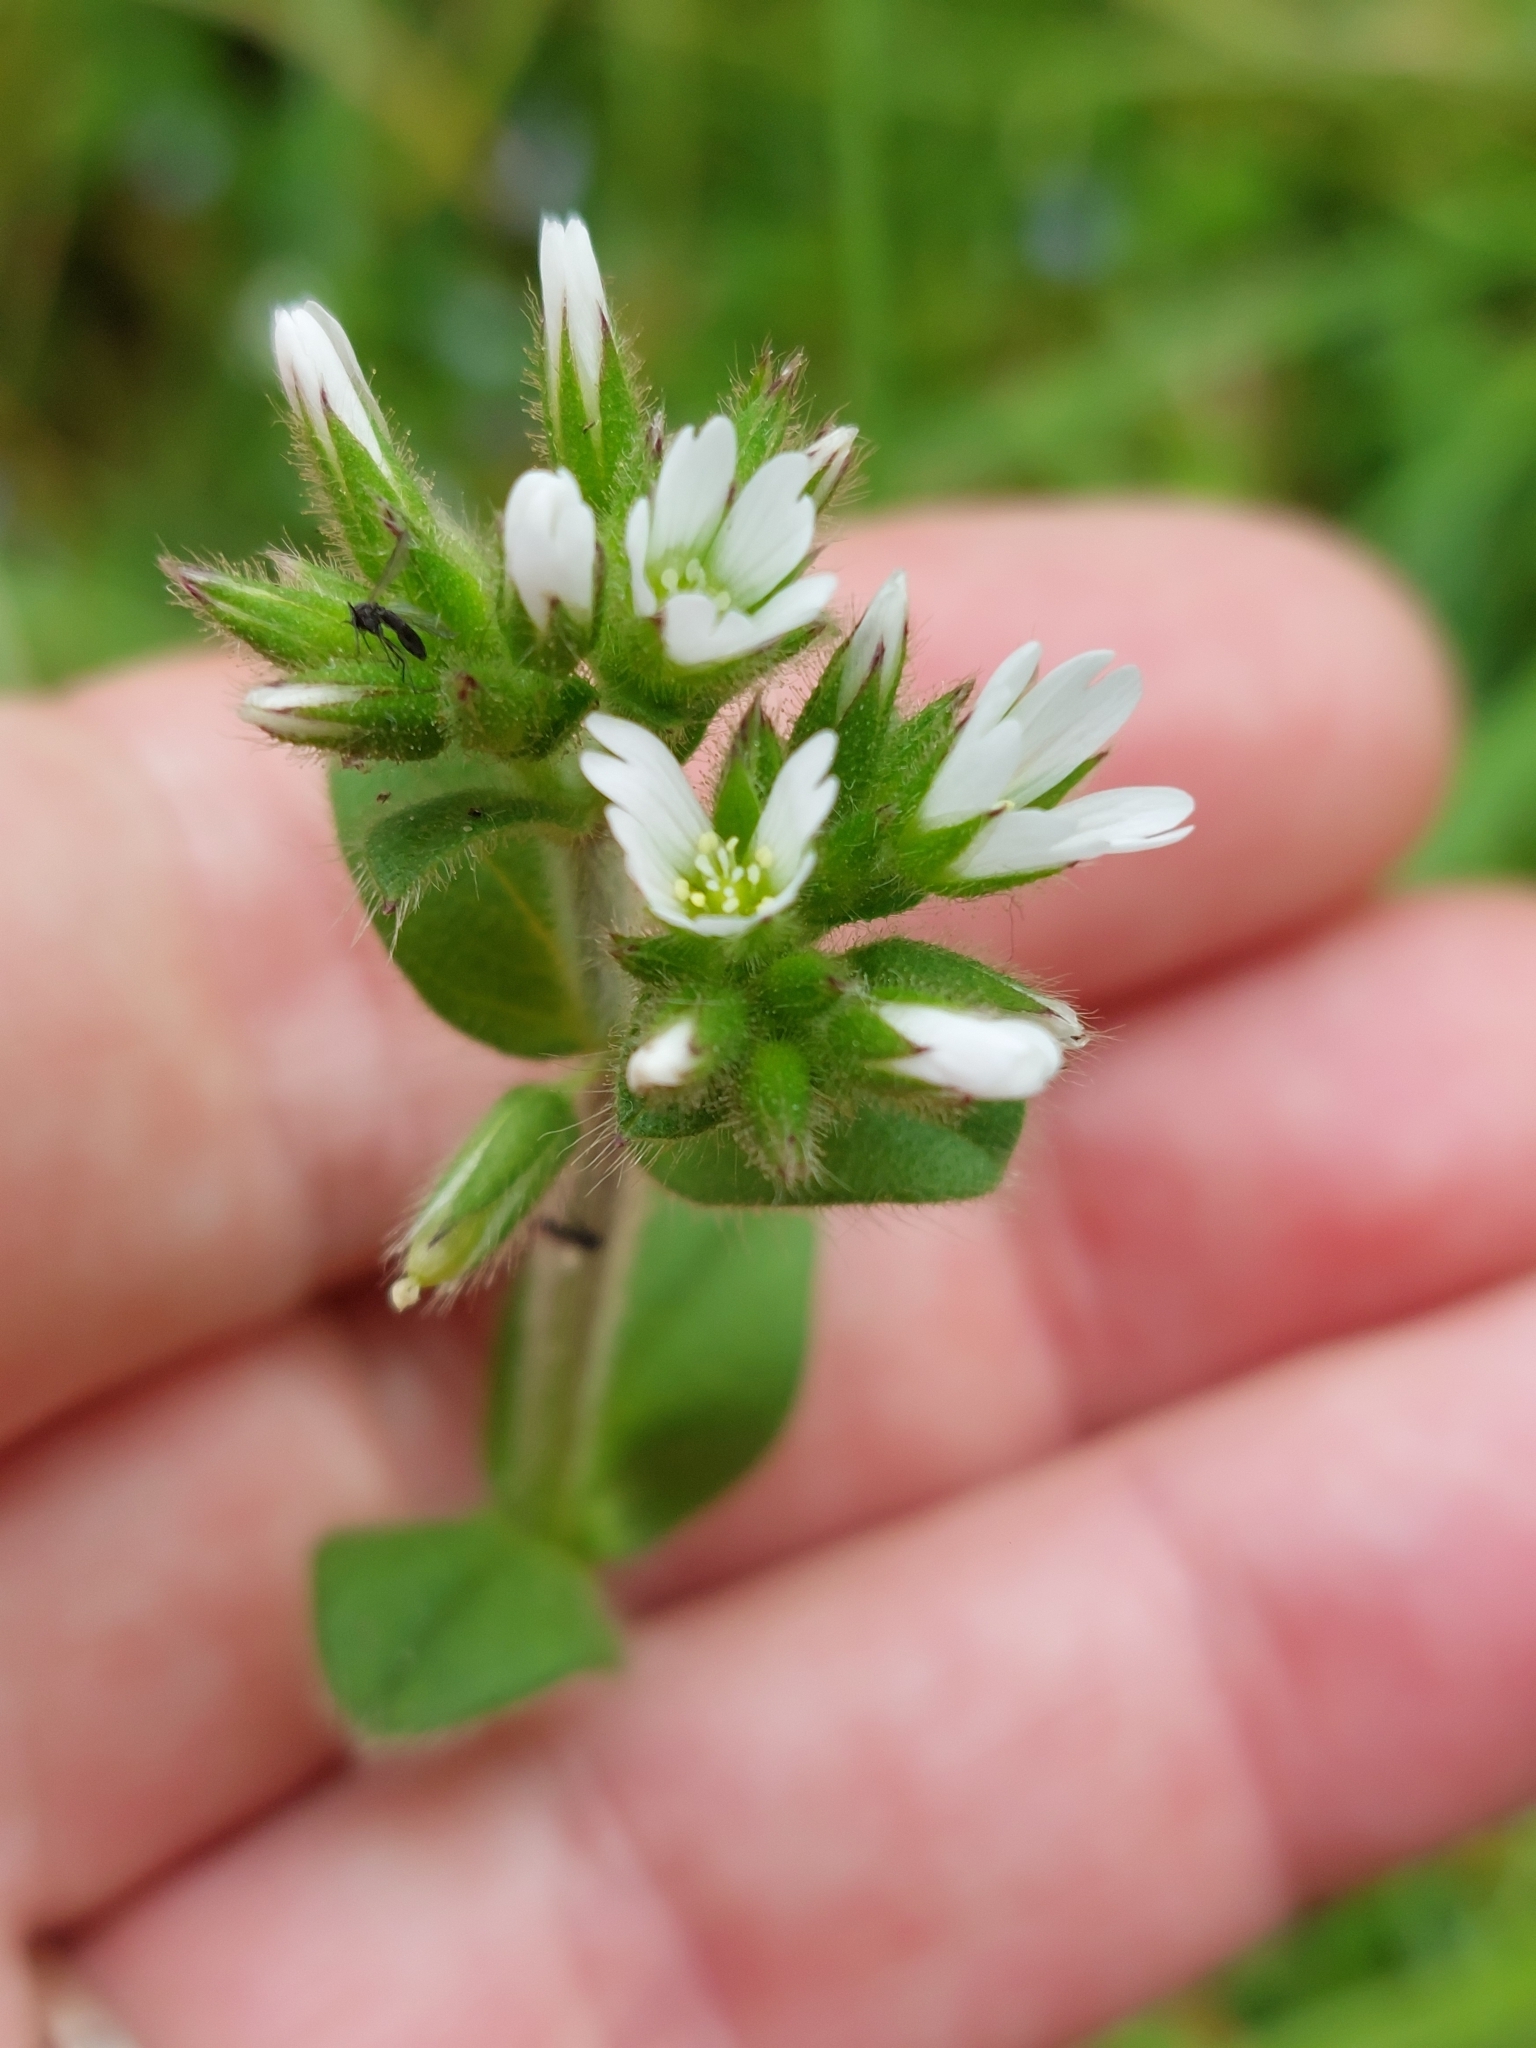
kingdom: Plantae
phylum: Tracheophyta
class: Magnoliopsida
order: Caryophyllales
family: Caryophyllaceae
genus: Cerastium
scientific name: Cerastium glomeratum
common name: Sticky chickweed
